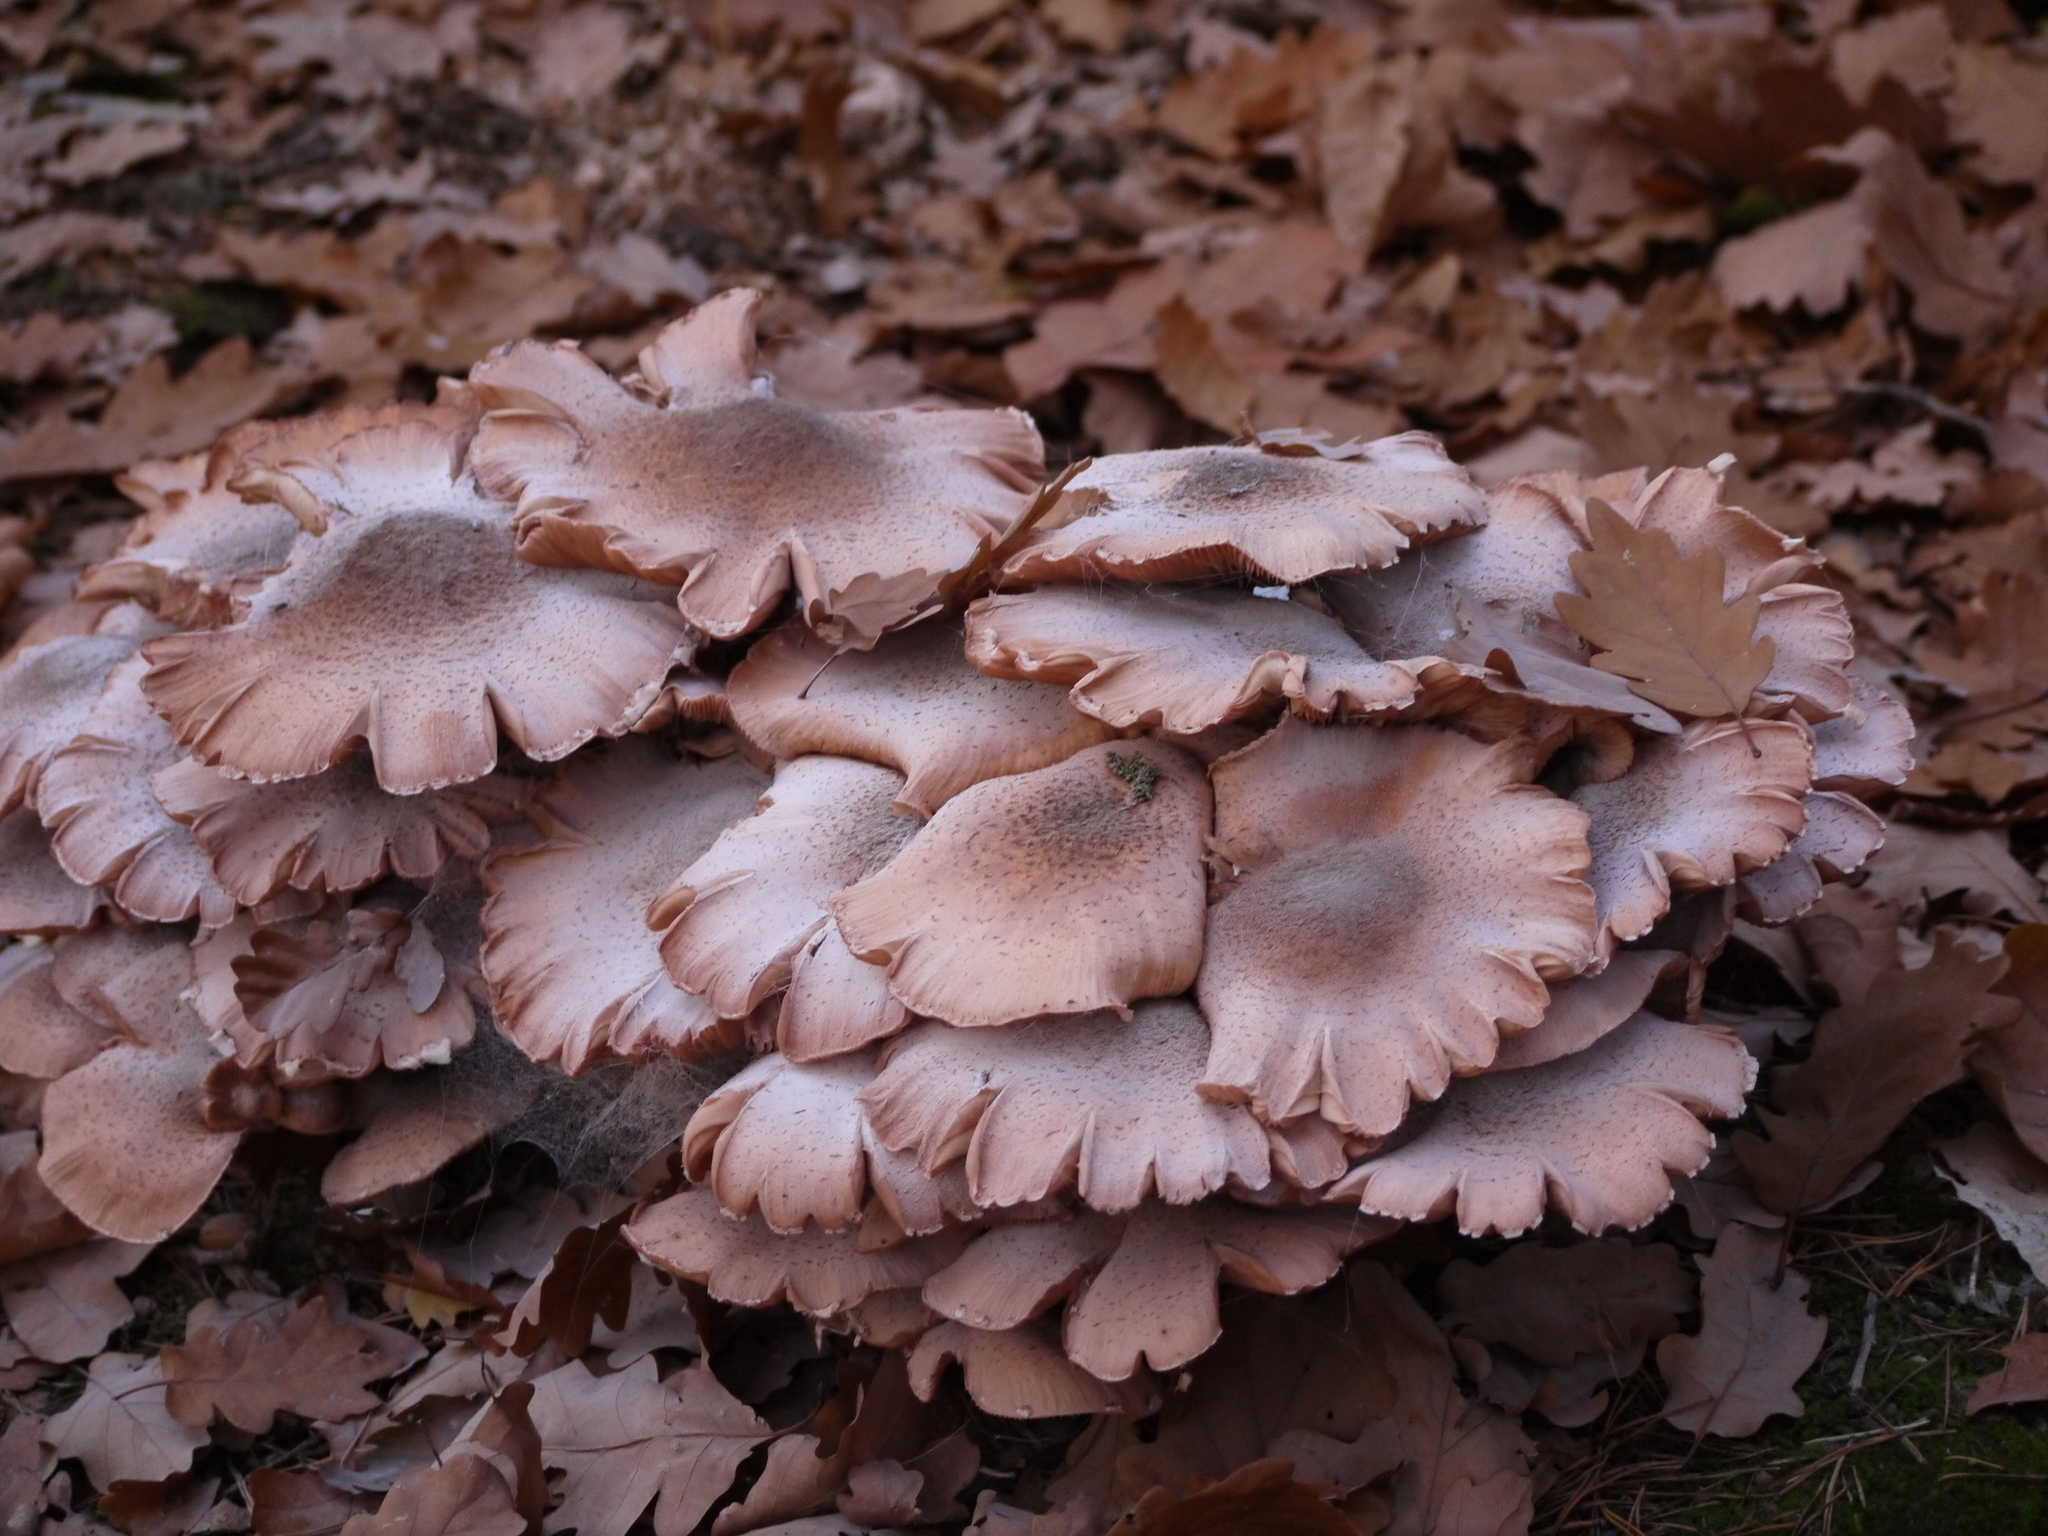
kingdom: Fungi
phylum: Basidiomycota
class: Agaricomycetes
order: Agaricales
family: Physalacriaceae
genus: Armillaria
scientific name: Armillaria mellea
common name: Honey fungus
